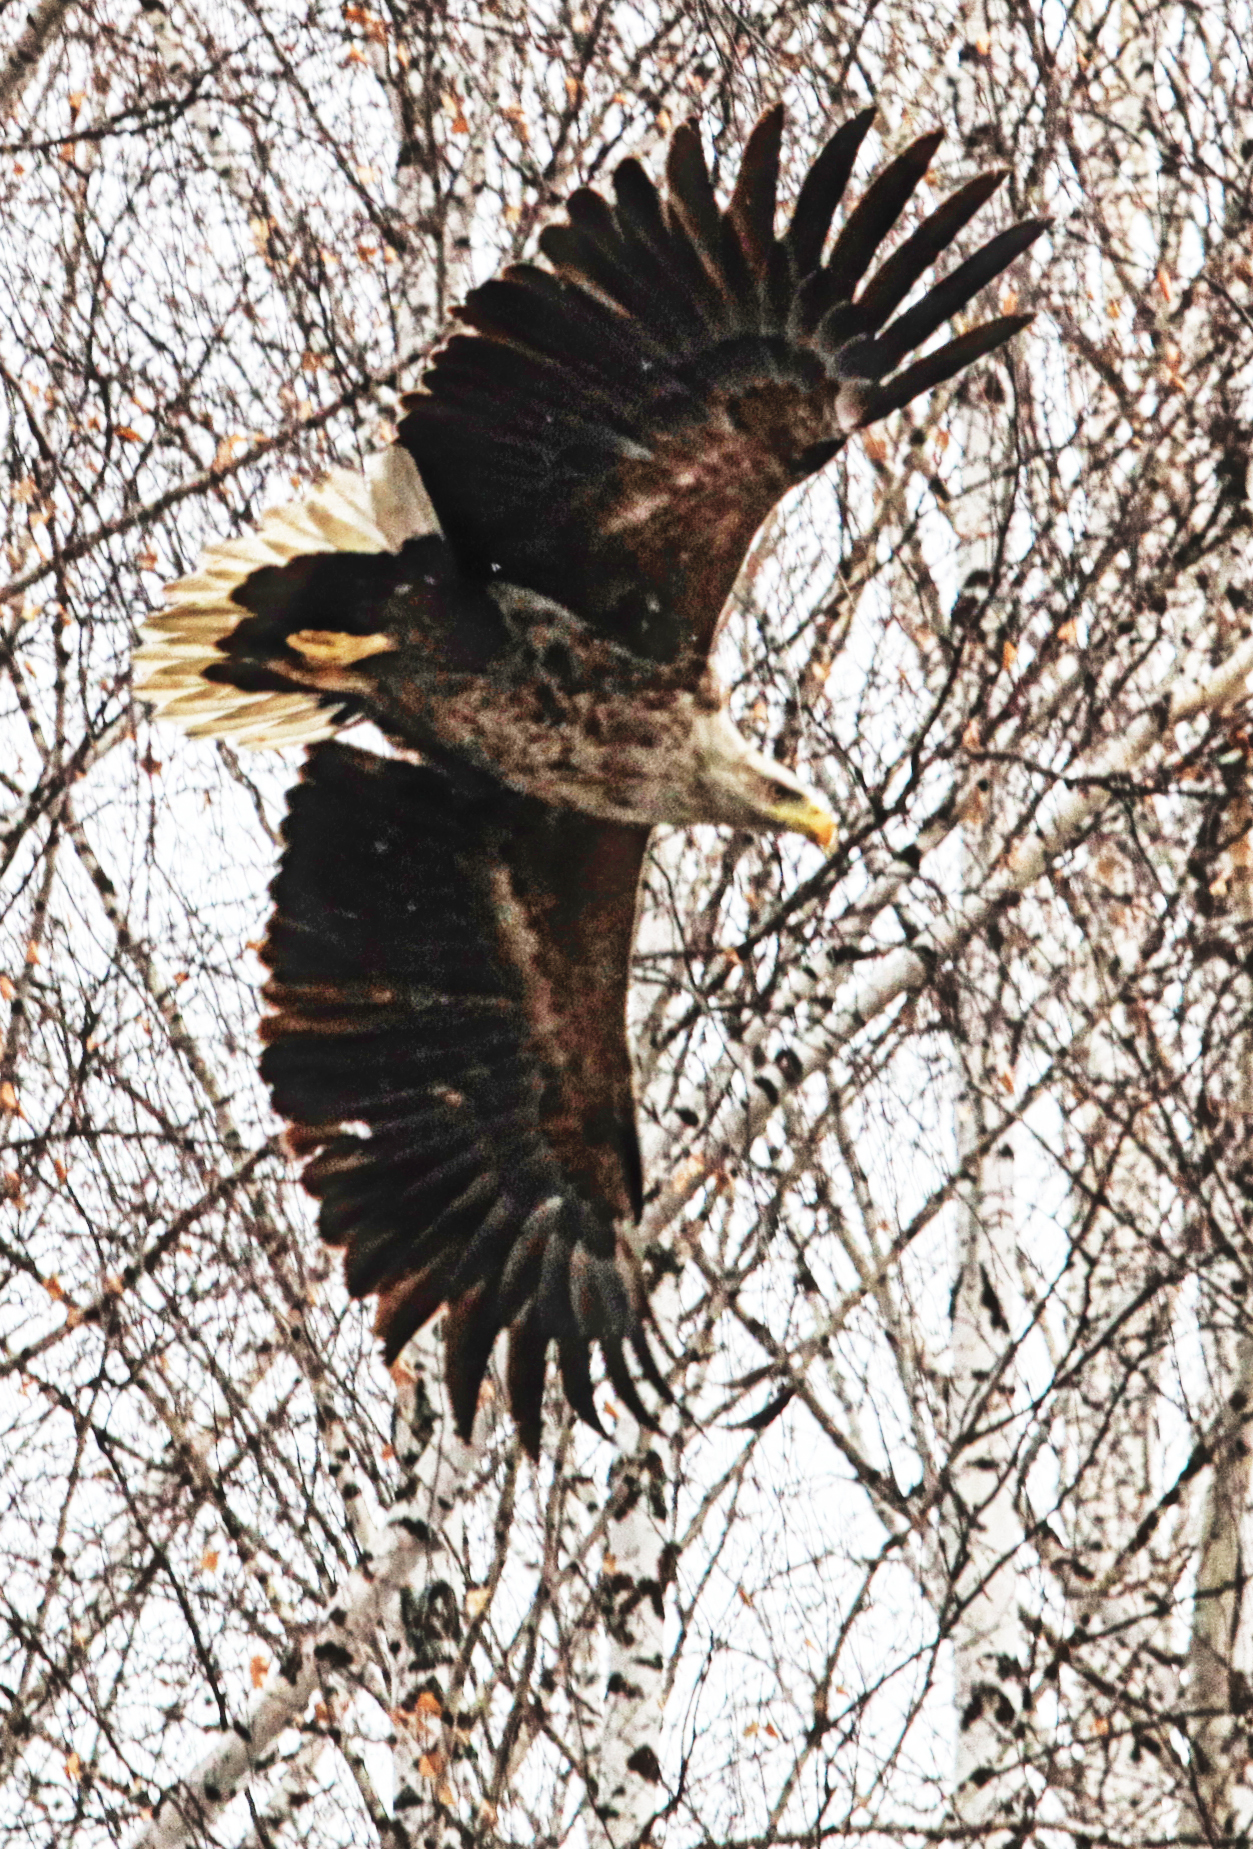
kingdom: Animalia
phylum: Chordata
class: Aves
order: Accipitriformes
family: Accipitridae
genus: Haliaeetus
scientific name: Haliaeetus albicilla
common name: White-tailed eagle
